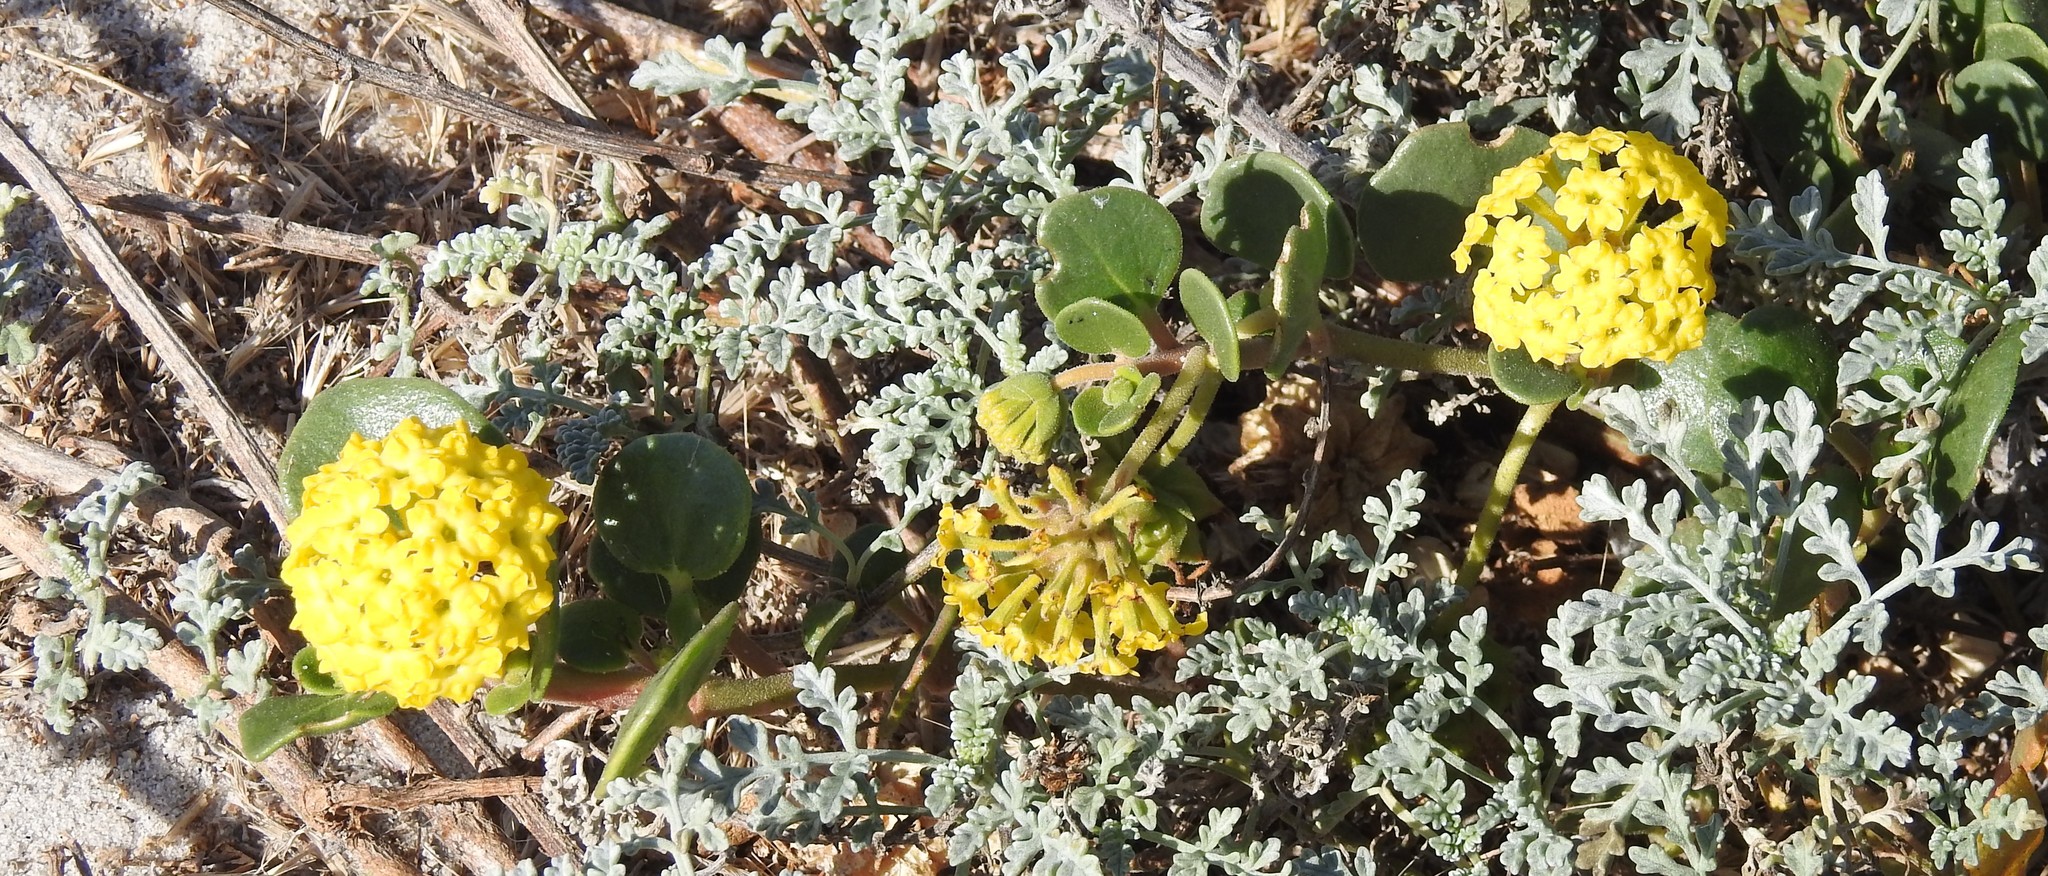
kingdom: Plantae
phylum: Tracheophyta
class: Magnoliopsida
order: Caryophyllales
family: Nyctaginaceae
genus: Abronia
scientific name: Abronia latifolia
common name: Yellow sand-verbena
